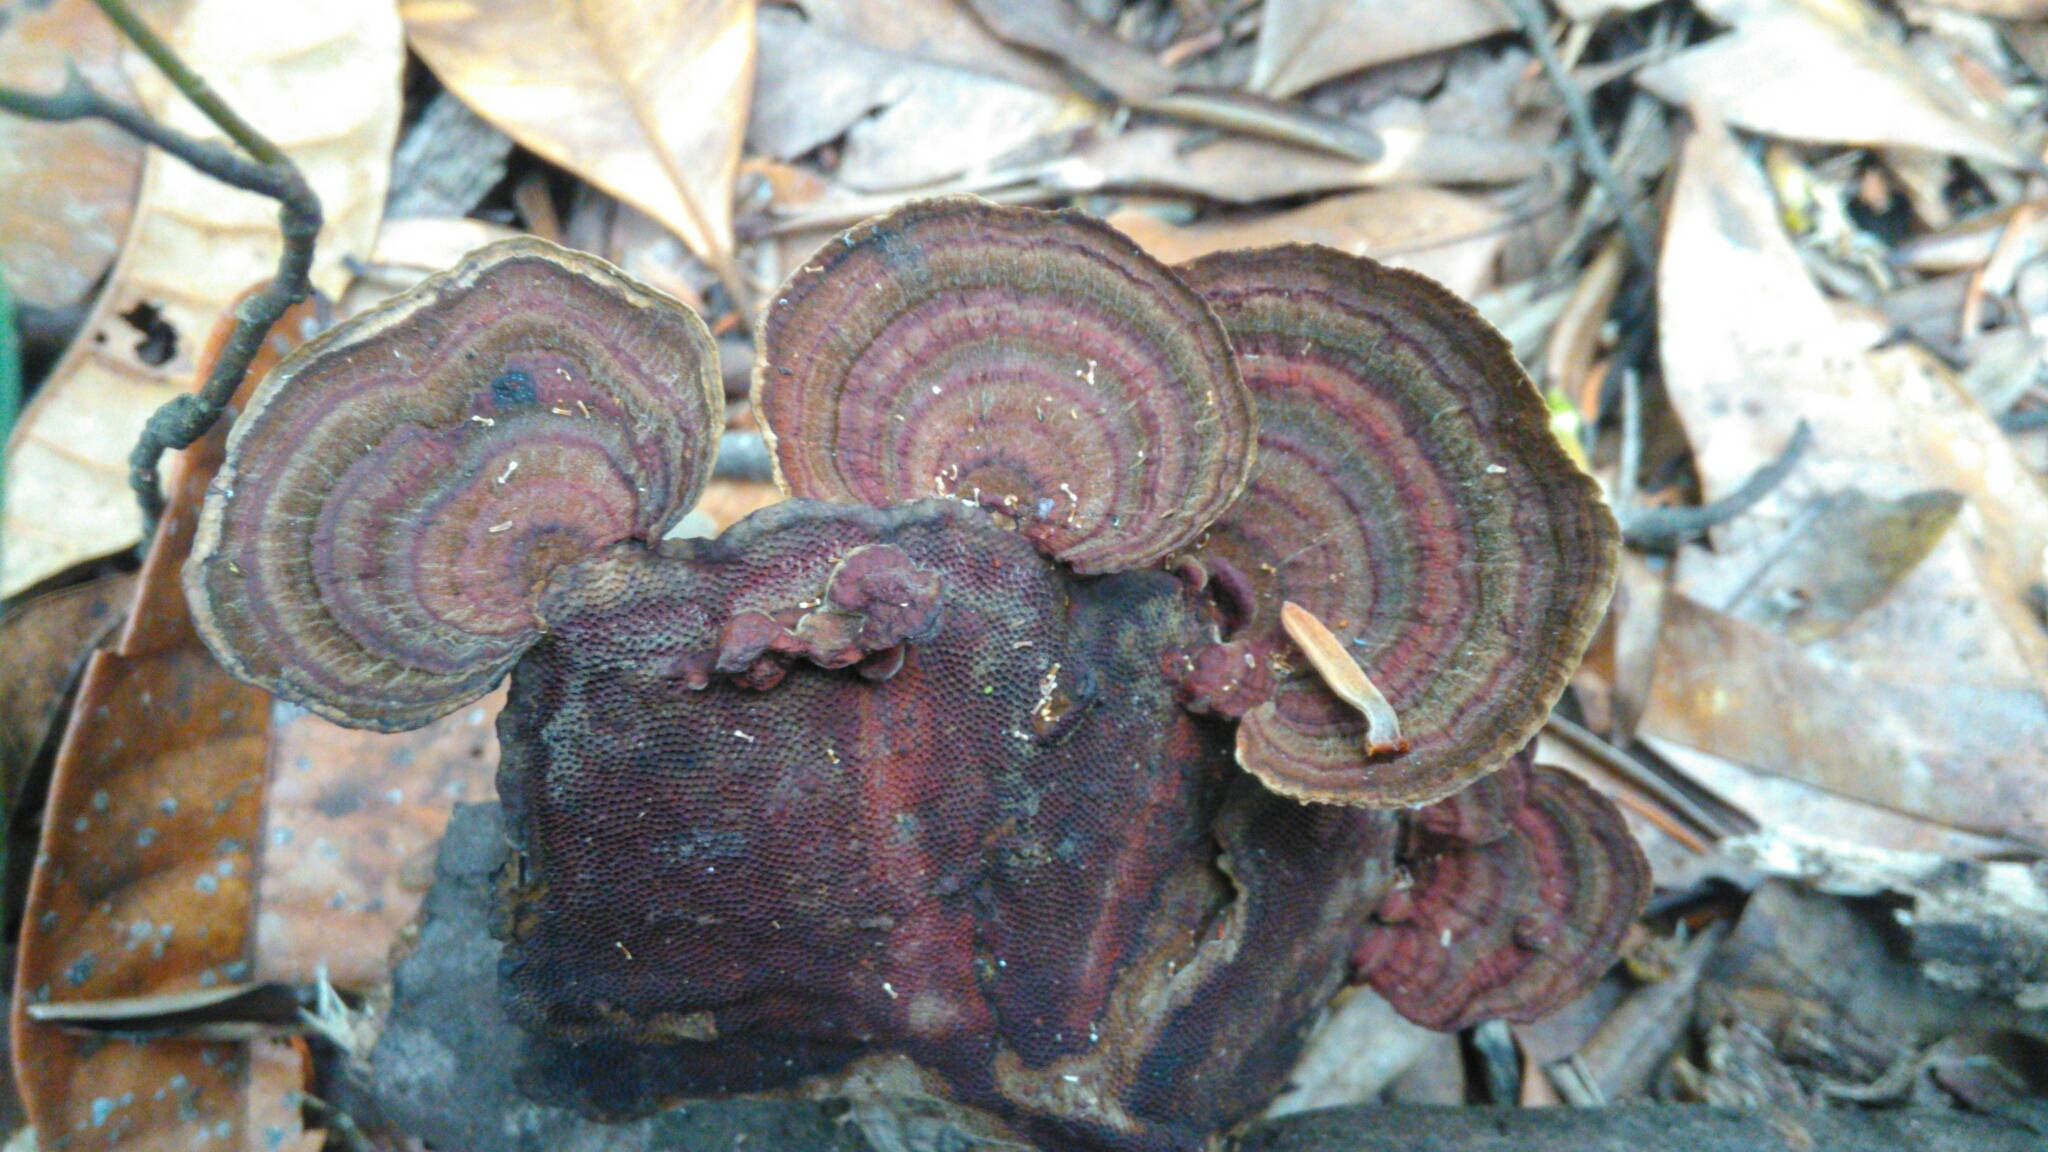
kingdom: Fungi
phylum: Basidiomycota
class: Agaricomycetes
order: Polyporales
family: Polyporaceae
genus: Trametes
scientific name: Trametes variegata
